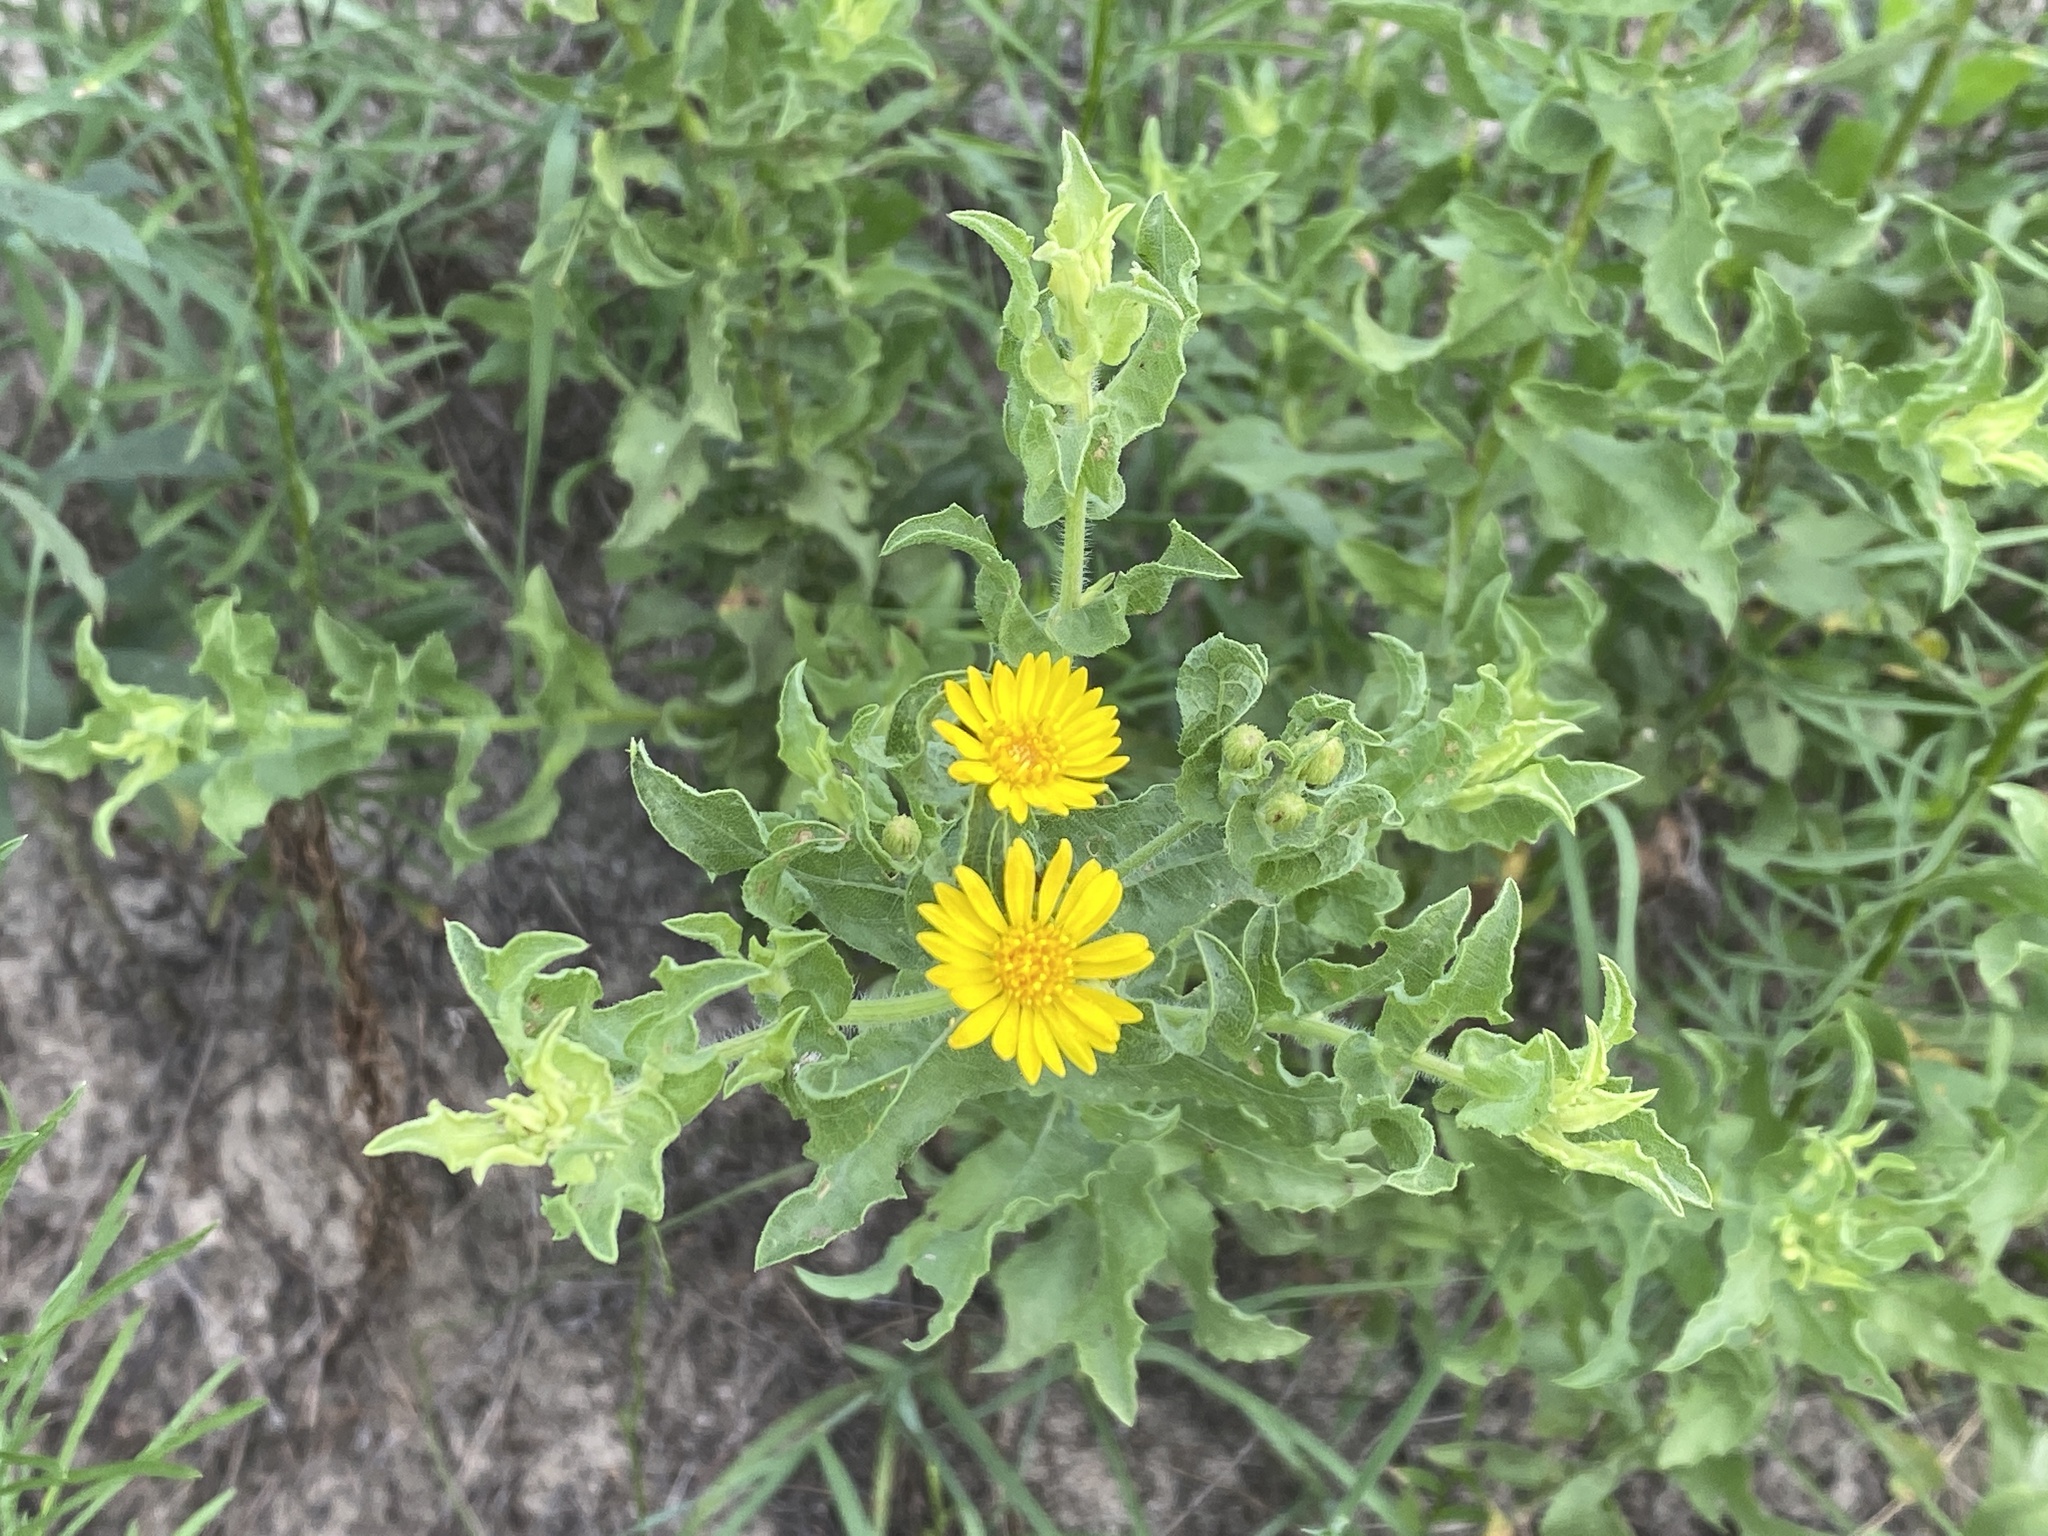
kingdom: Plantae
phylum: Tracheophyta
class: Magnoliopsida
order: Asterales
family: Asteraceae
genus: Heterotheca
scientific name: Heterotheca subaxillaris
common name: Camphorweed
